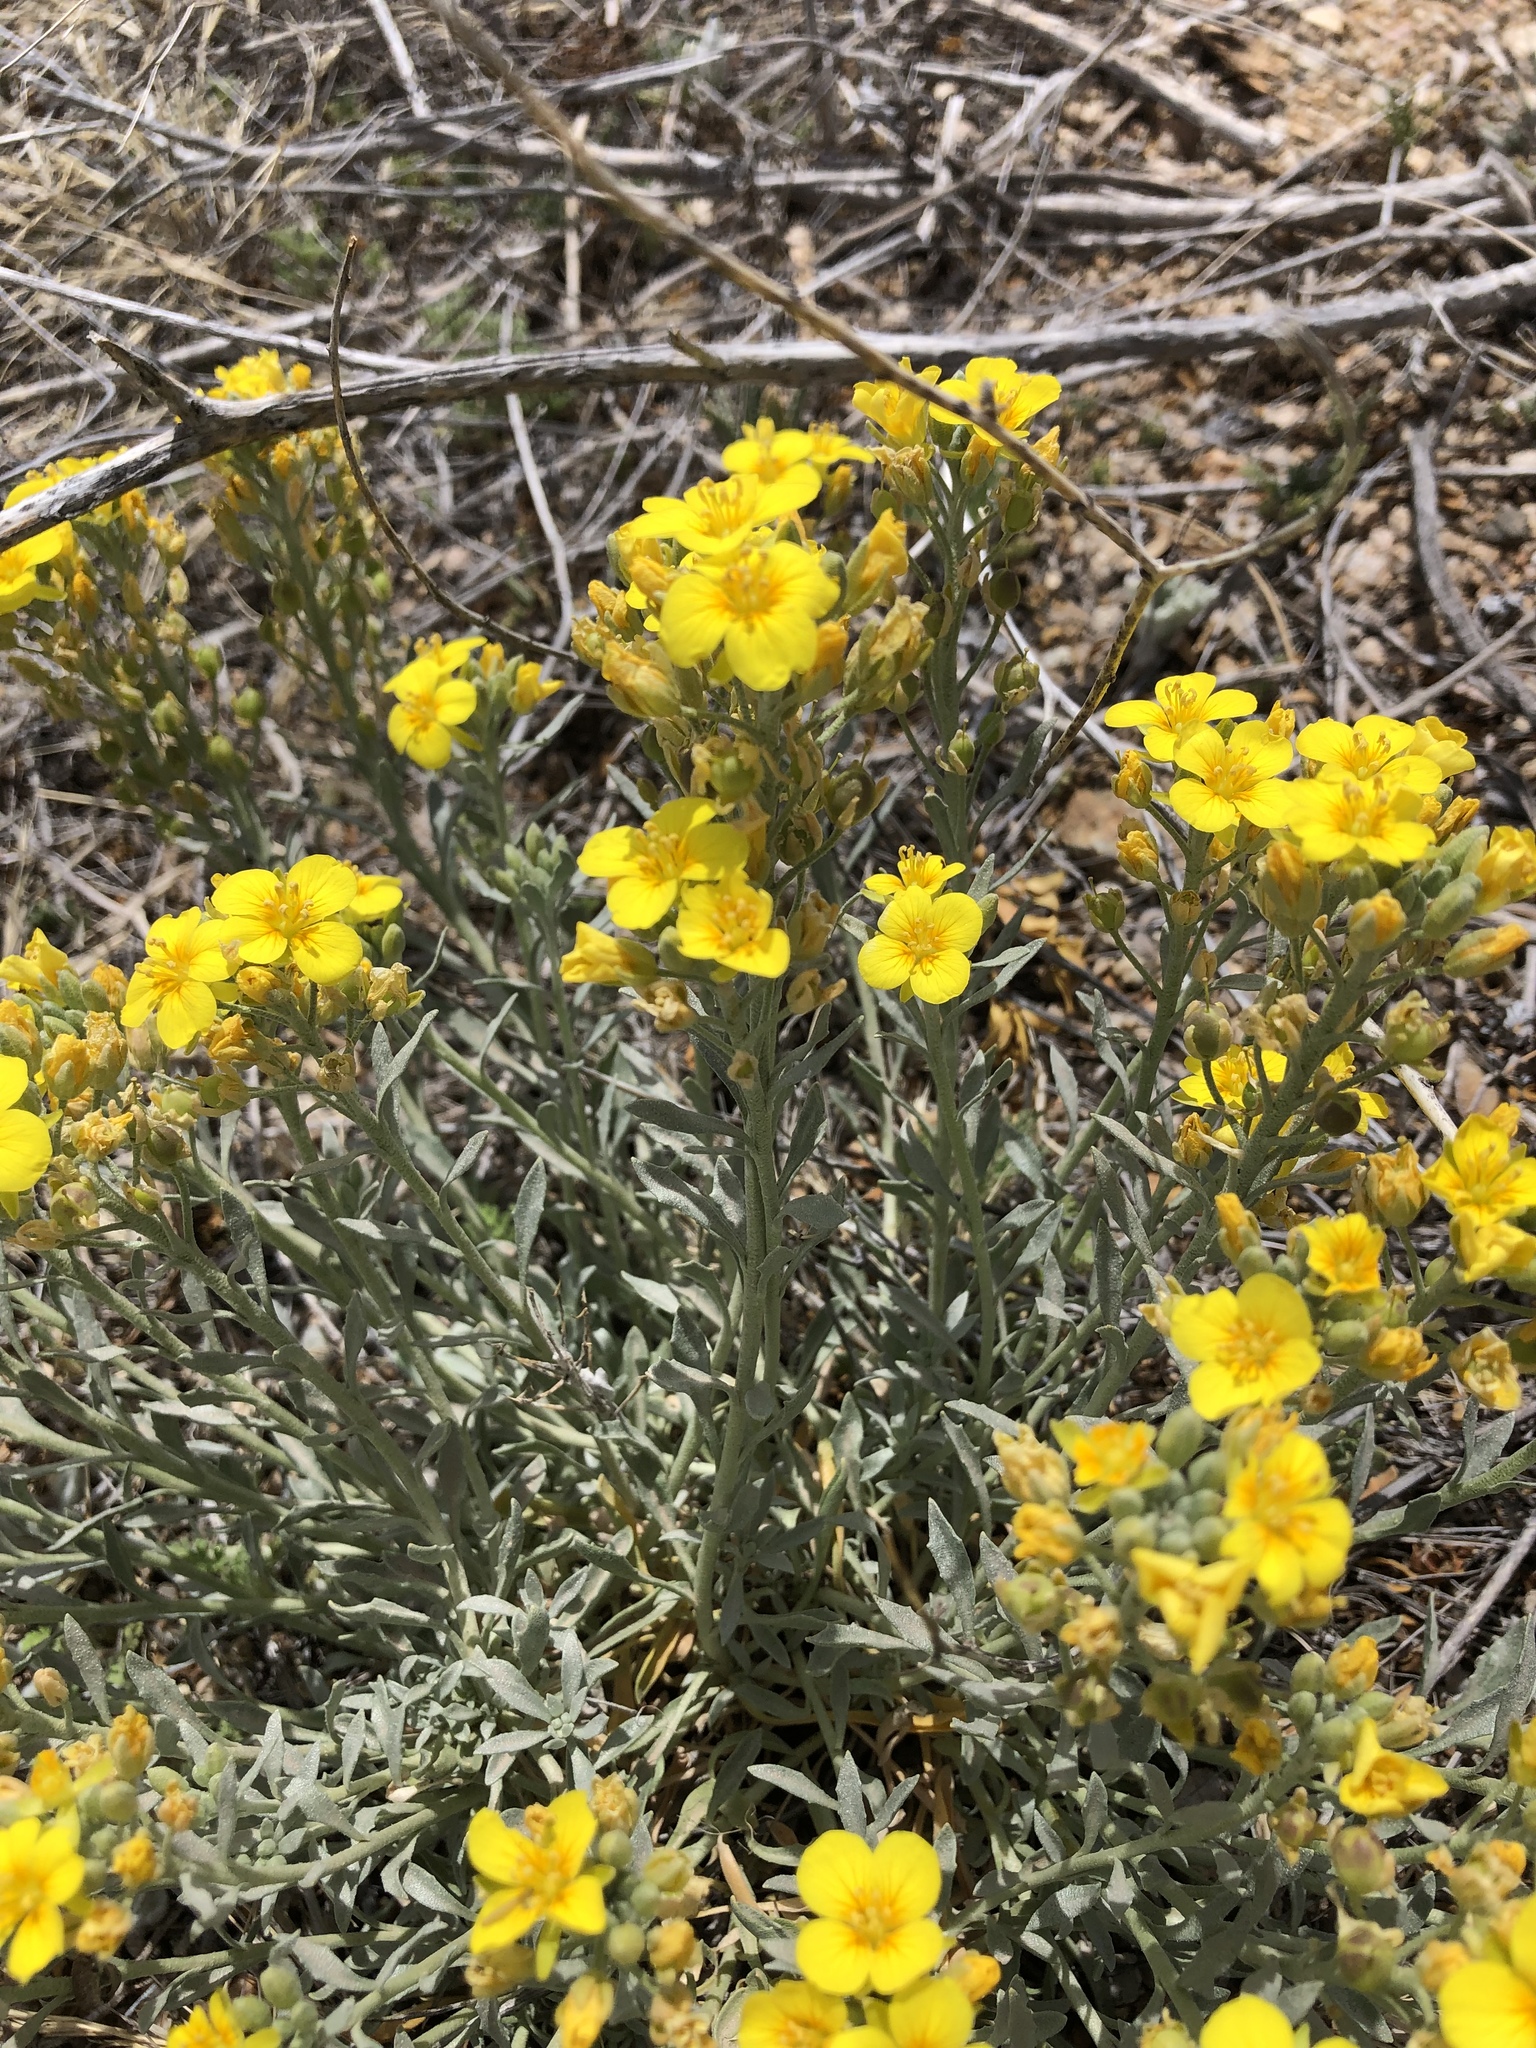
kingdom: Plantae
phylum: Tracheophyta
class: Magnoliopsida
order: Brassicales
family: Brassicaceae
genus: Physaria
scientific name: Physaria fendleri
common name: Fendler's bladderpod
